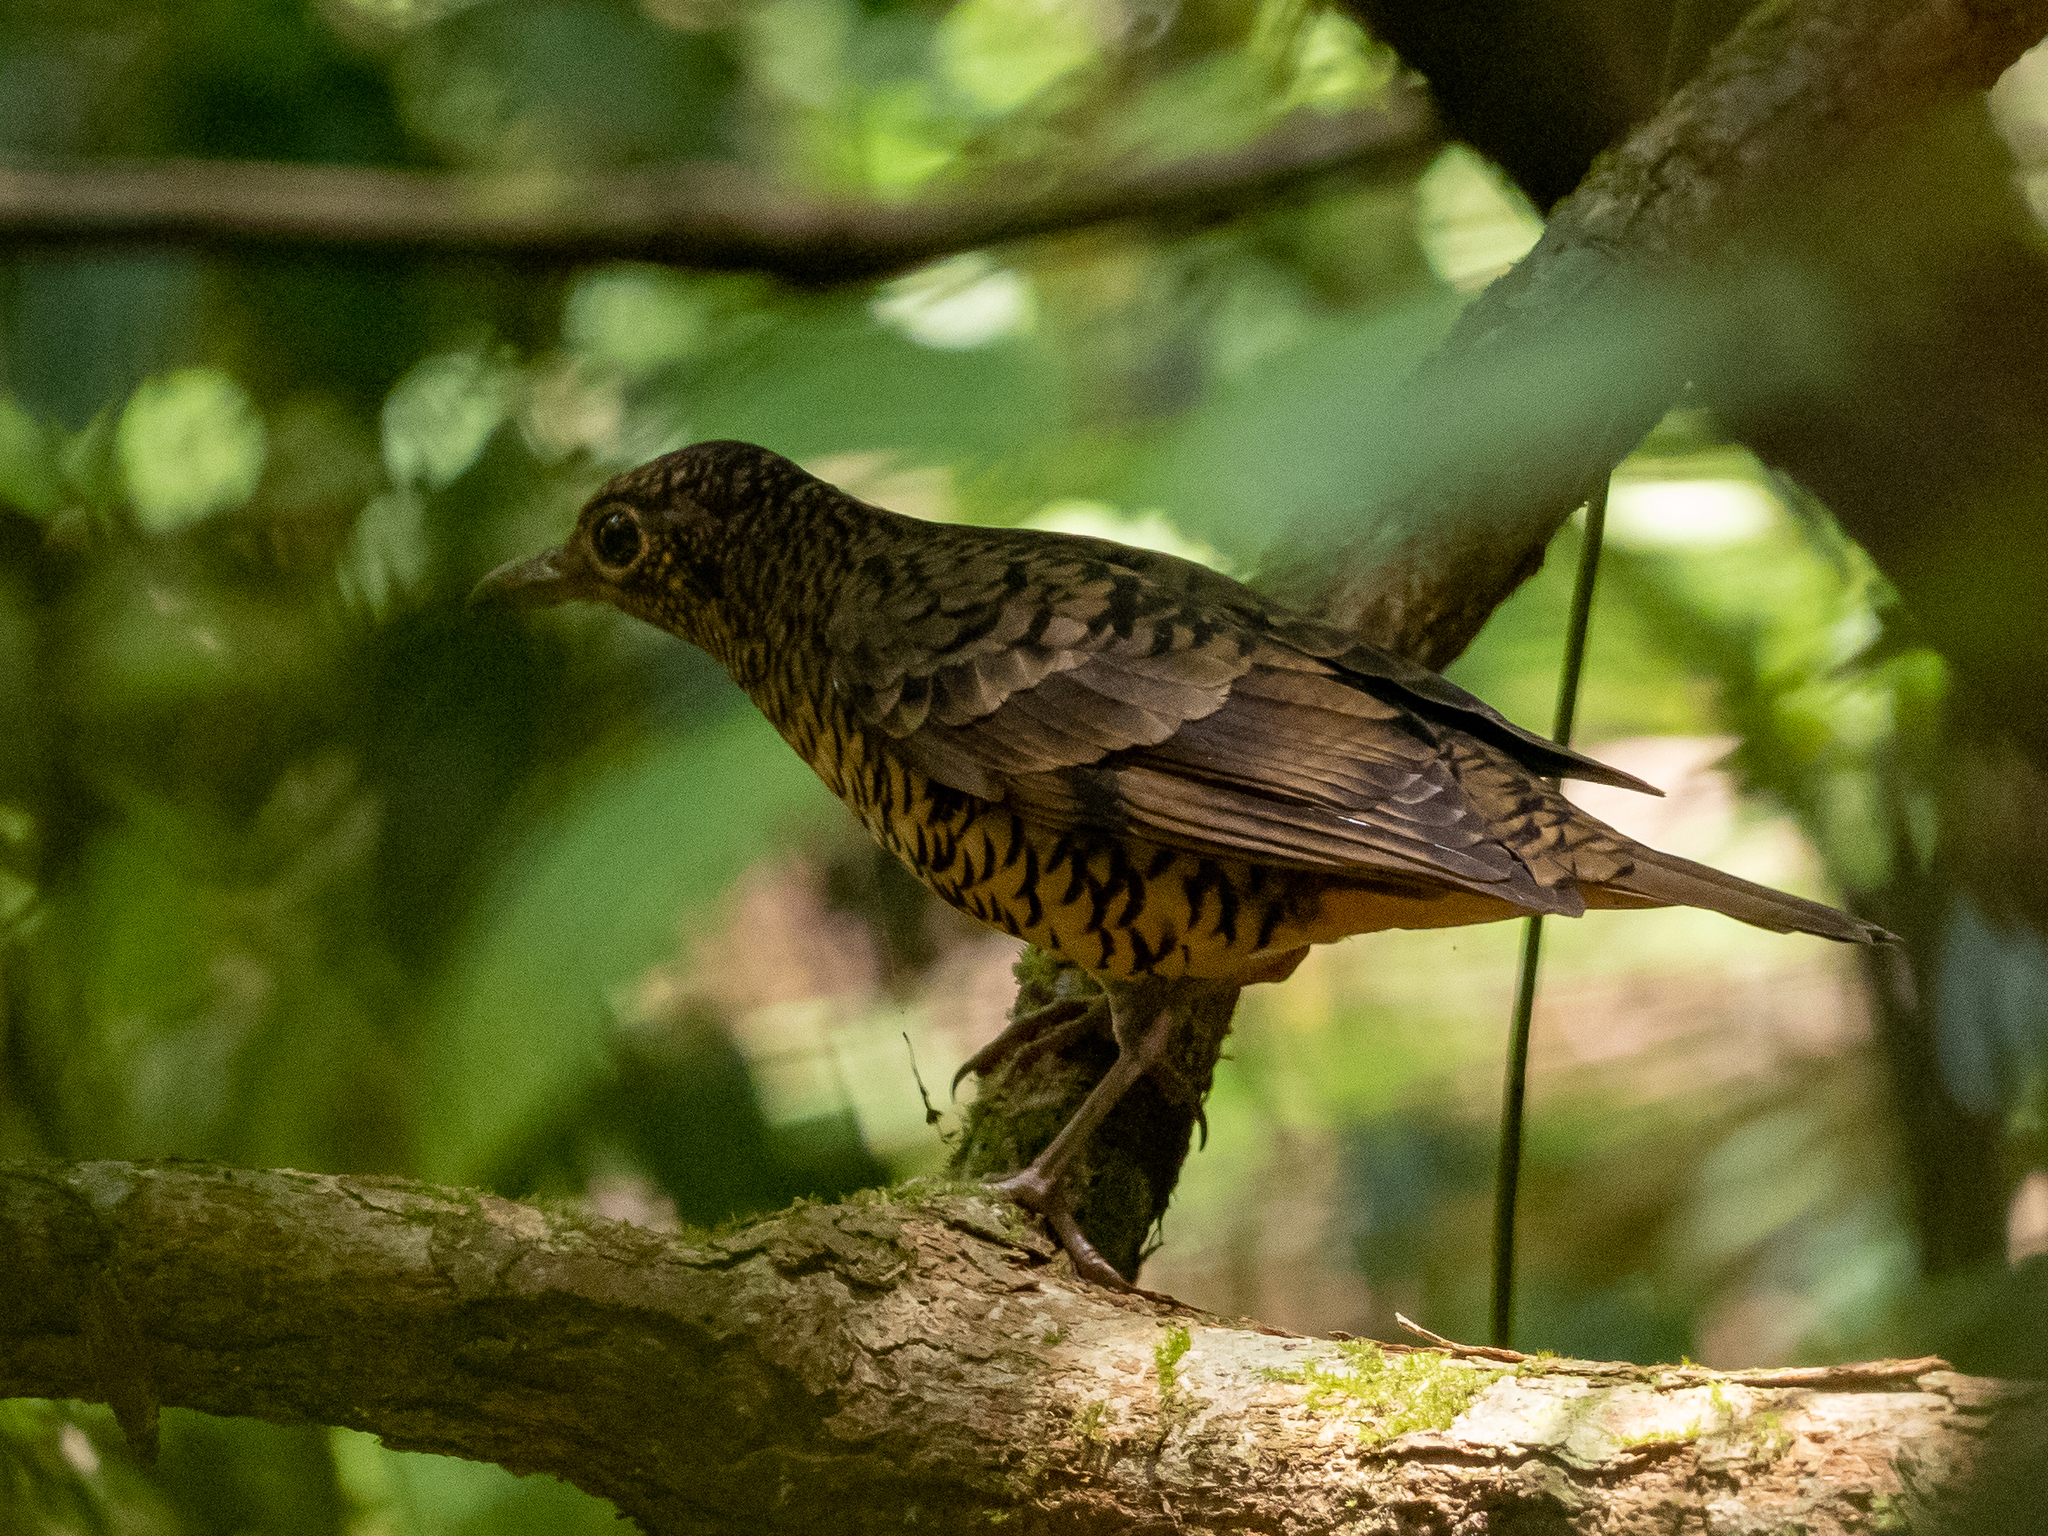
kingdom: Animalia
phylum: Chordata
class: Aves
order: Passeriformes
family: Turdidae
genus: Zoothera
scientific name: Zoothera imbricata
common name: Sri lanka thrush
